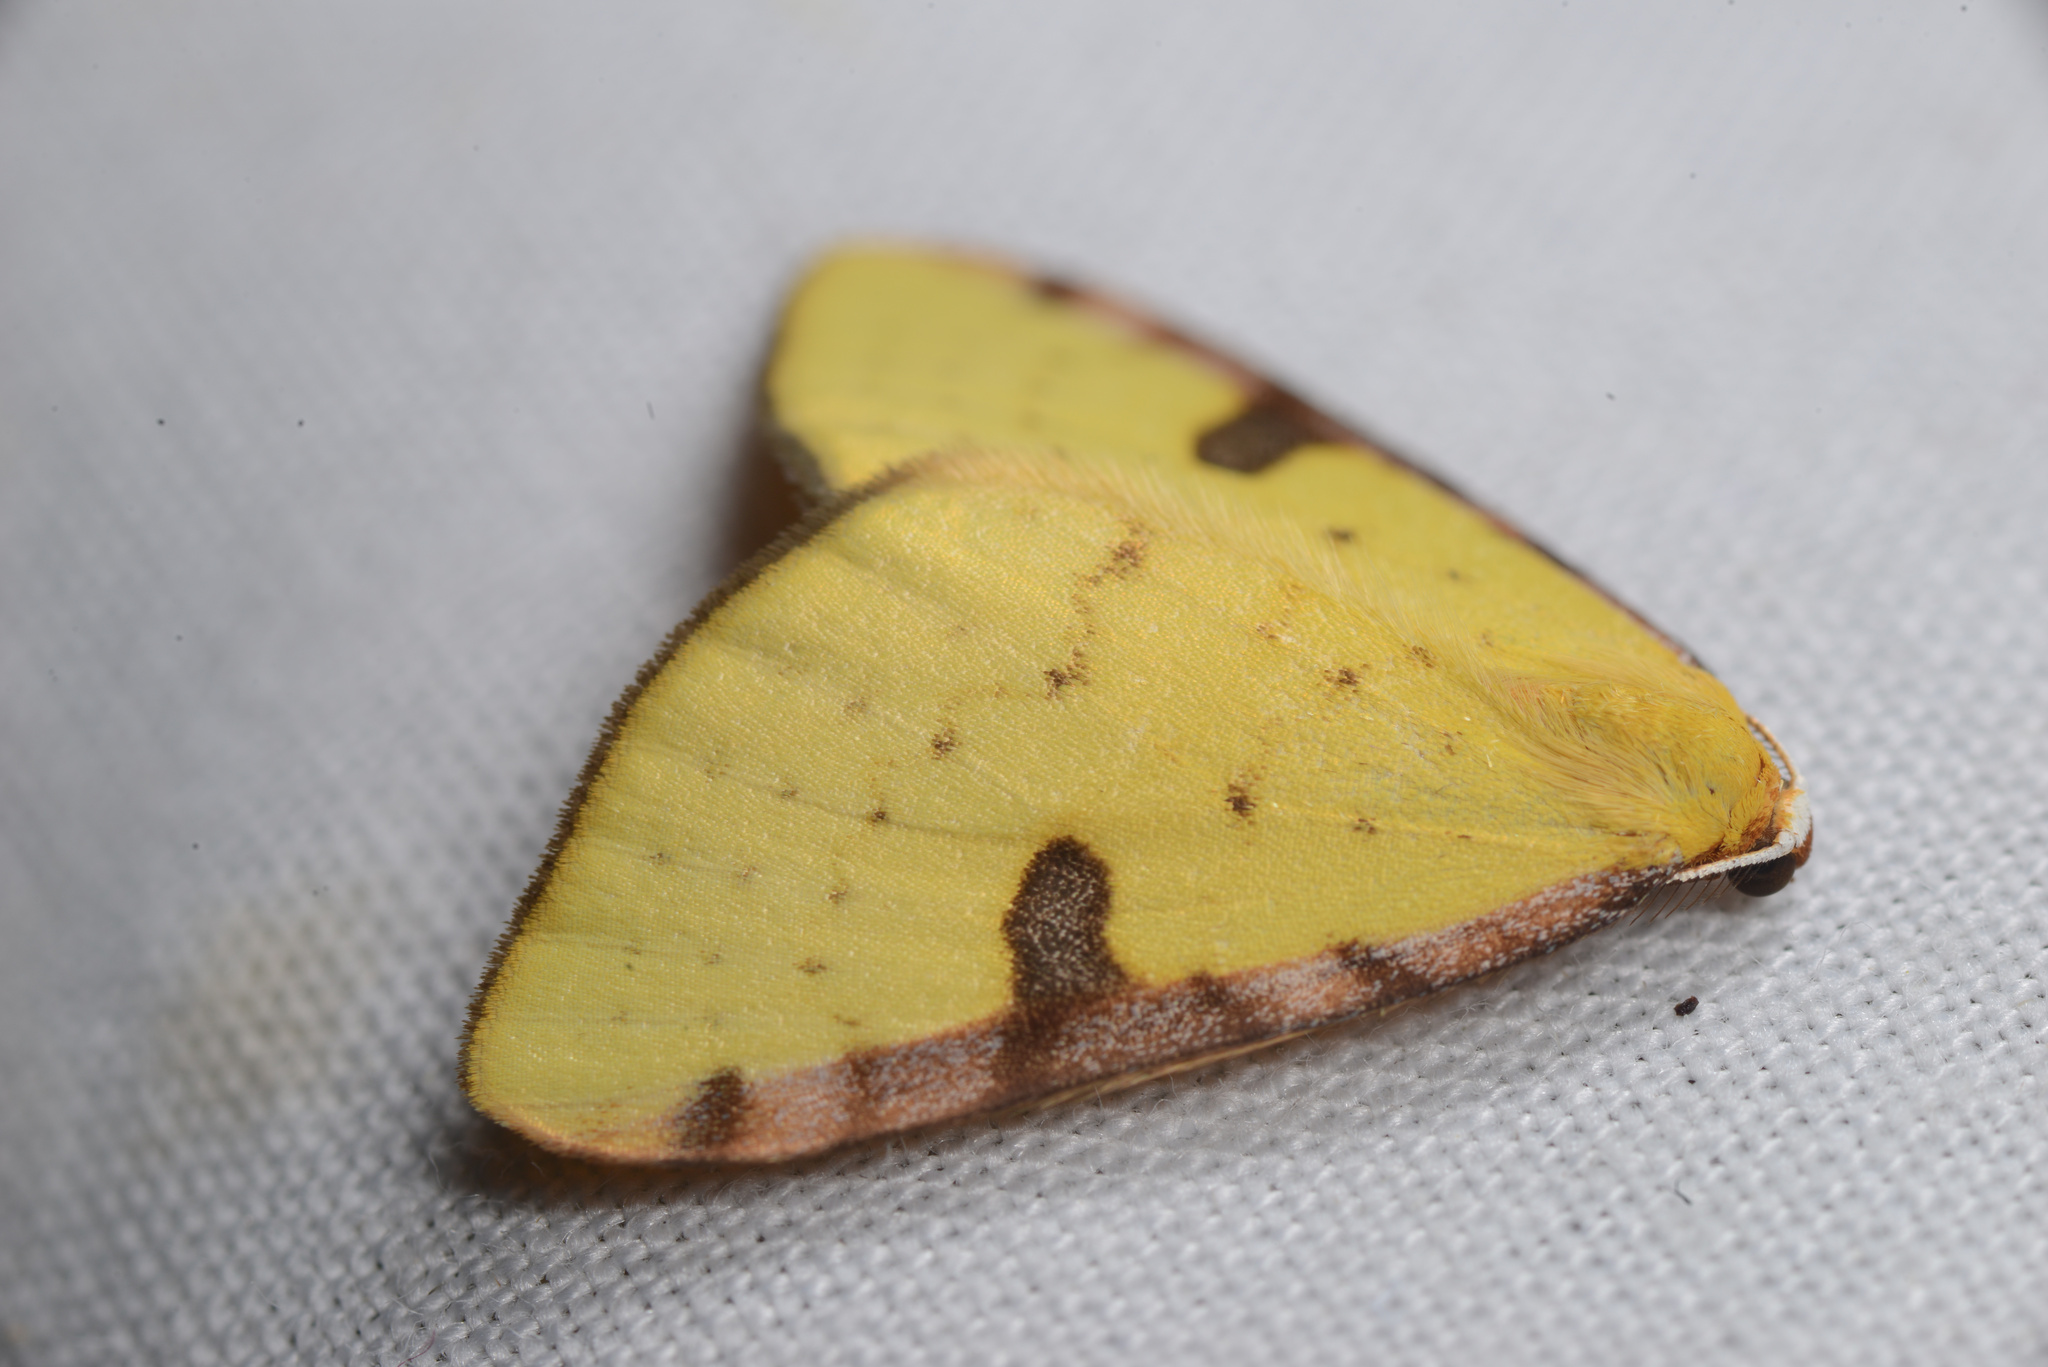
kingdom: Animalia
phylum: Arthropoda
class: Insecta
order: Lepidoptera
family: Geometridae
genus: Epiphryne
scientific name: Epiphryne xanthaspis
